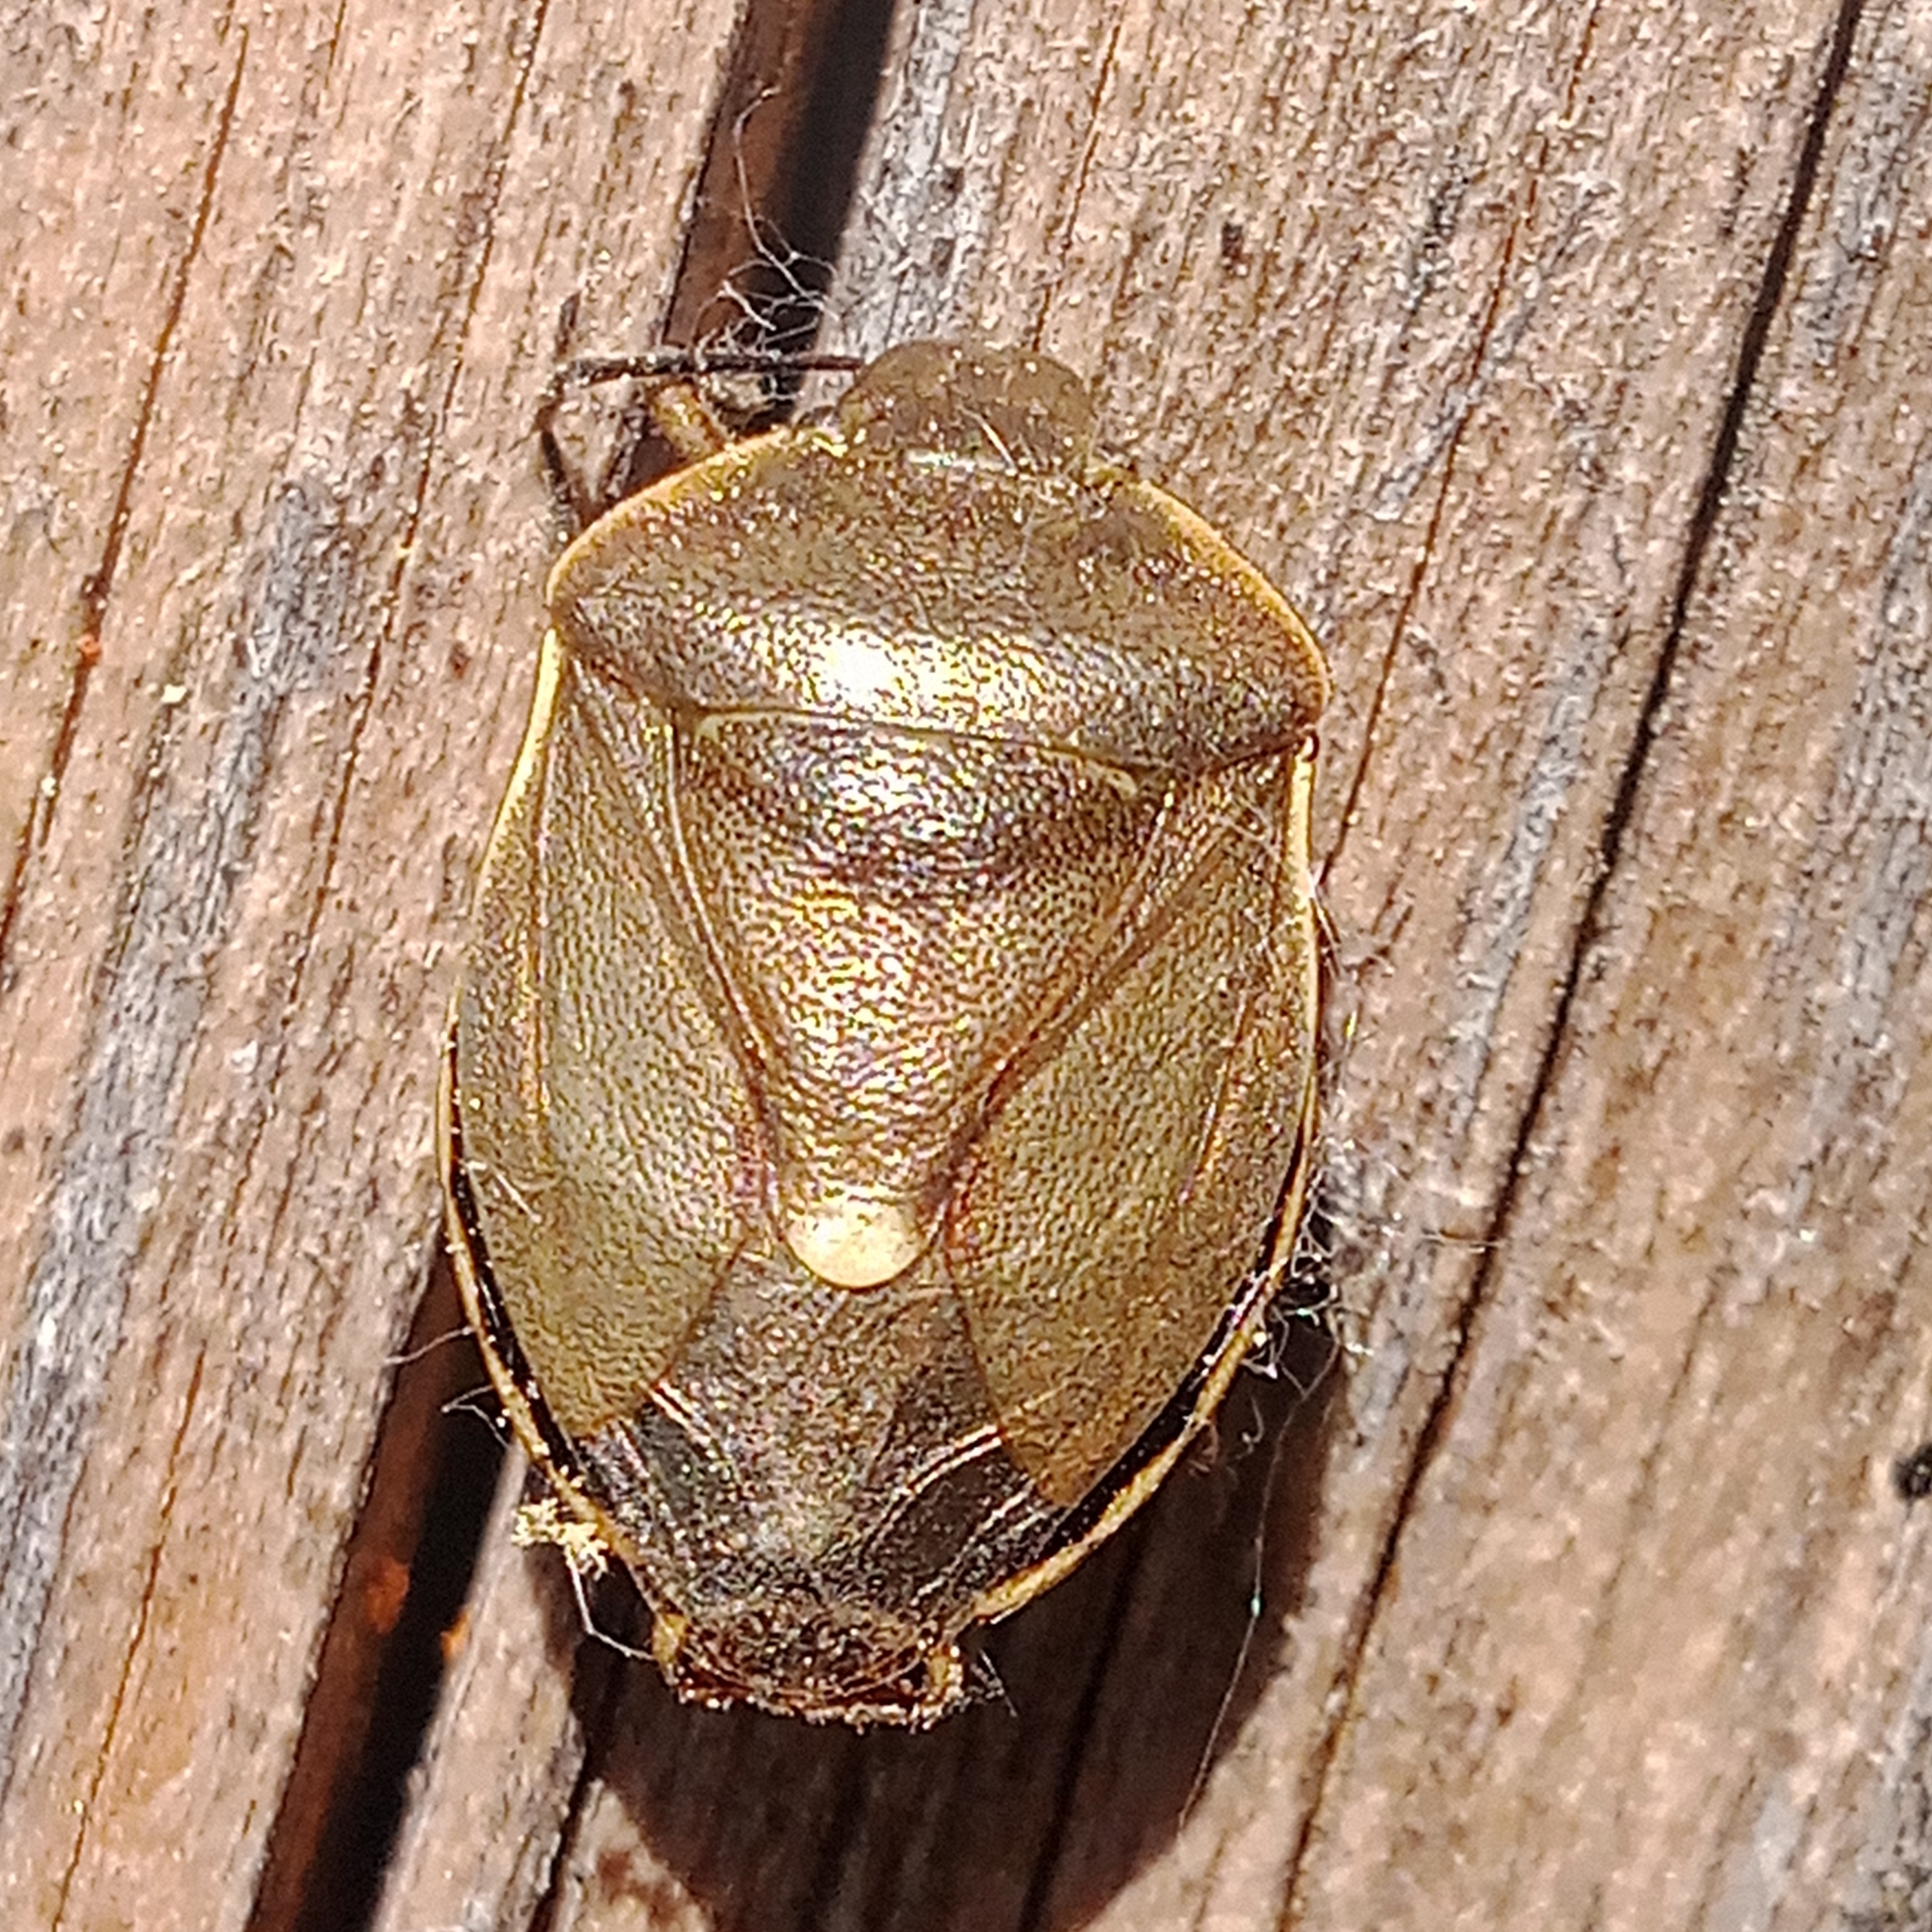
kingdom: Animalia
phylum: Arthropoda
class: Insecta
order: Hemiptera
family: Pentatomidae
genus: Chlorochroa
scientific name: Chlorochroa pinicola
